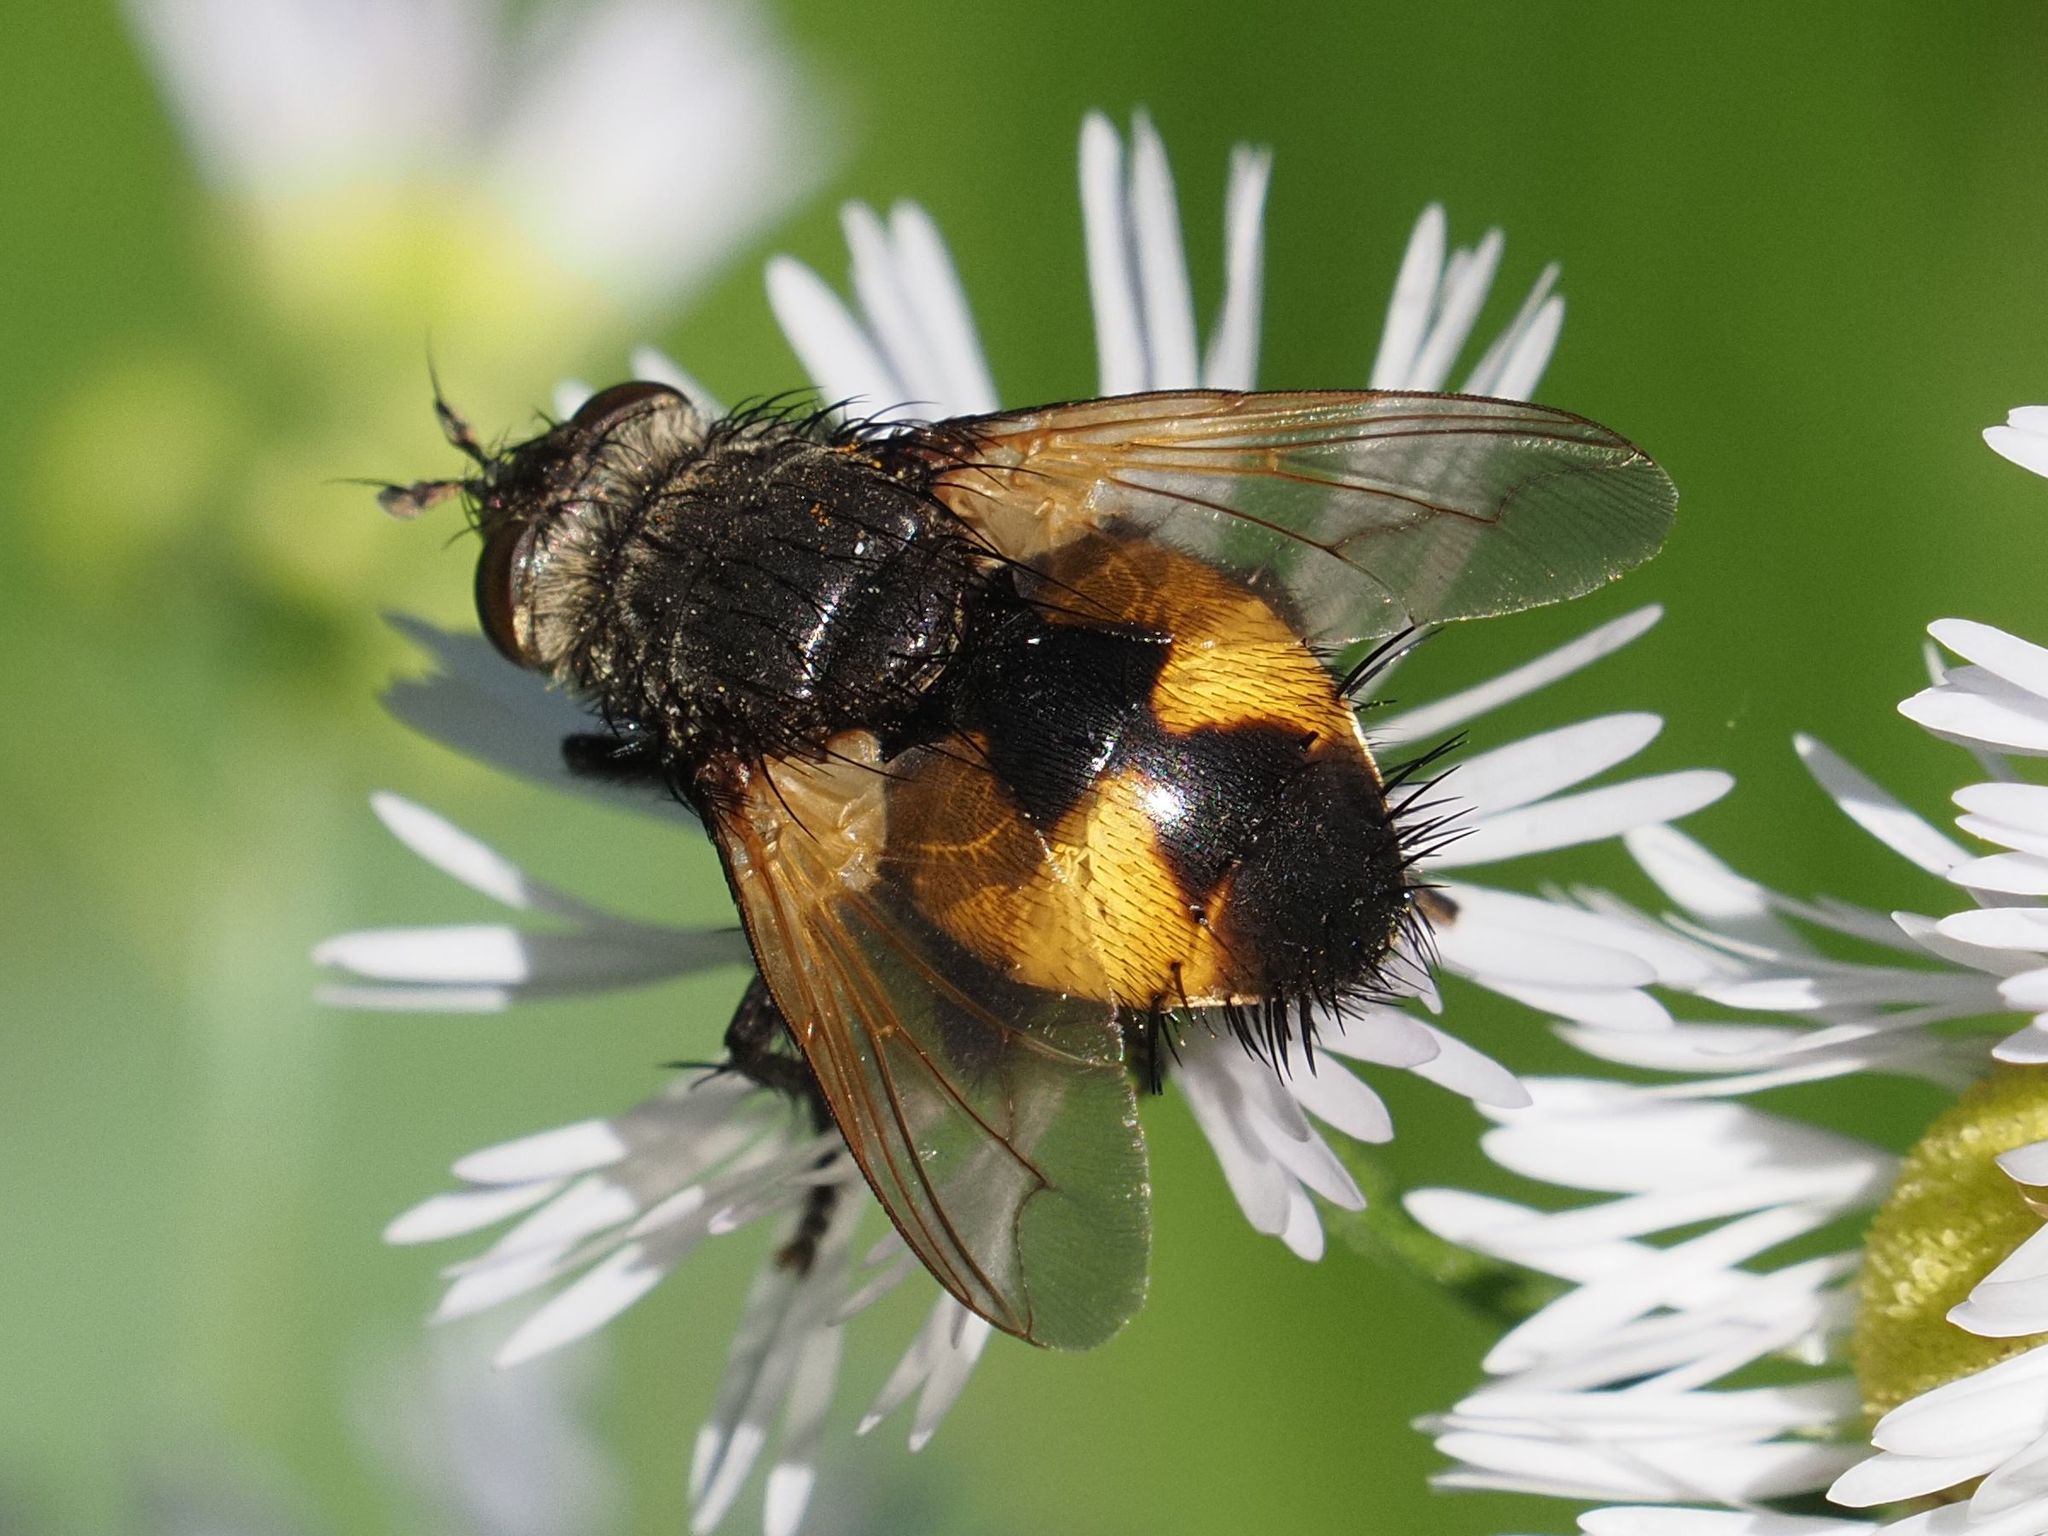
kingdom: Animalia
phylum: Arthropoda
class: Insecta
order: Diptera
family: Tachinidae
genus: Nowickia
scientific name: Nowickia ferox
